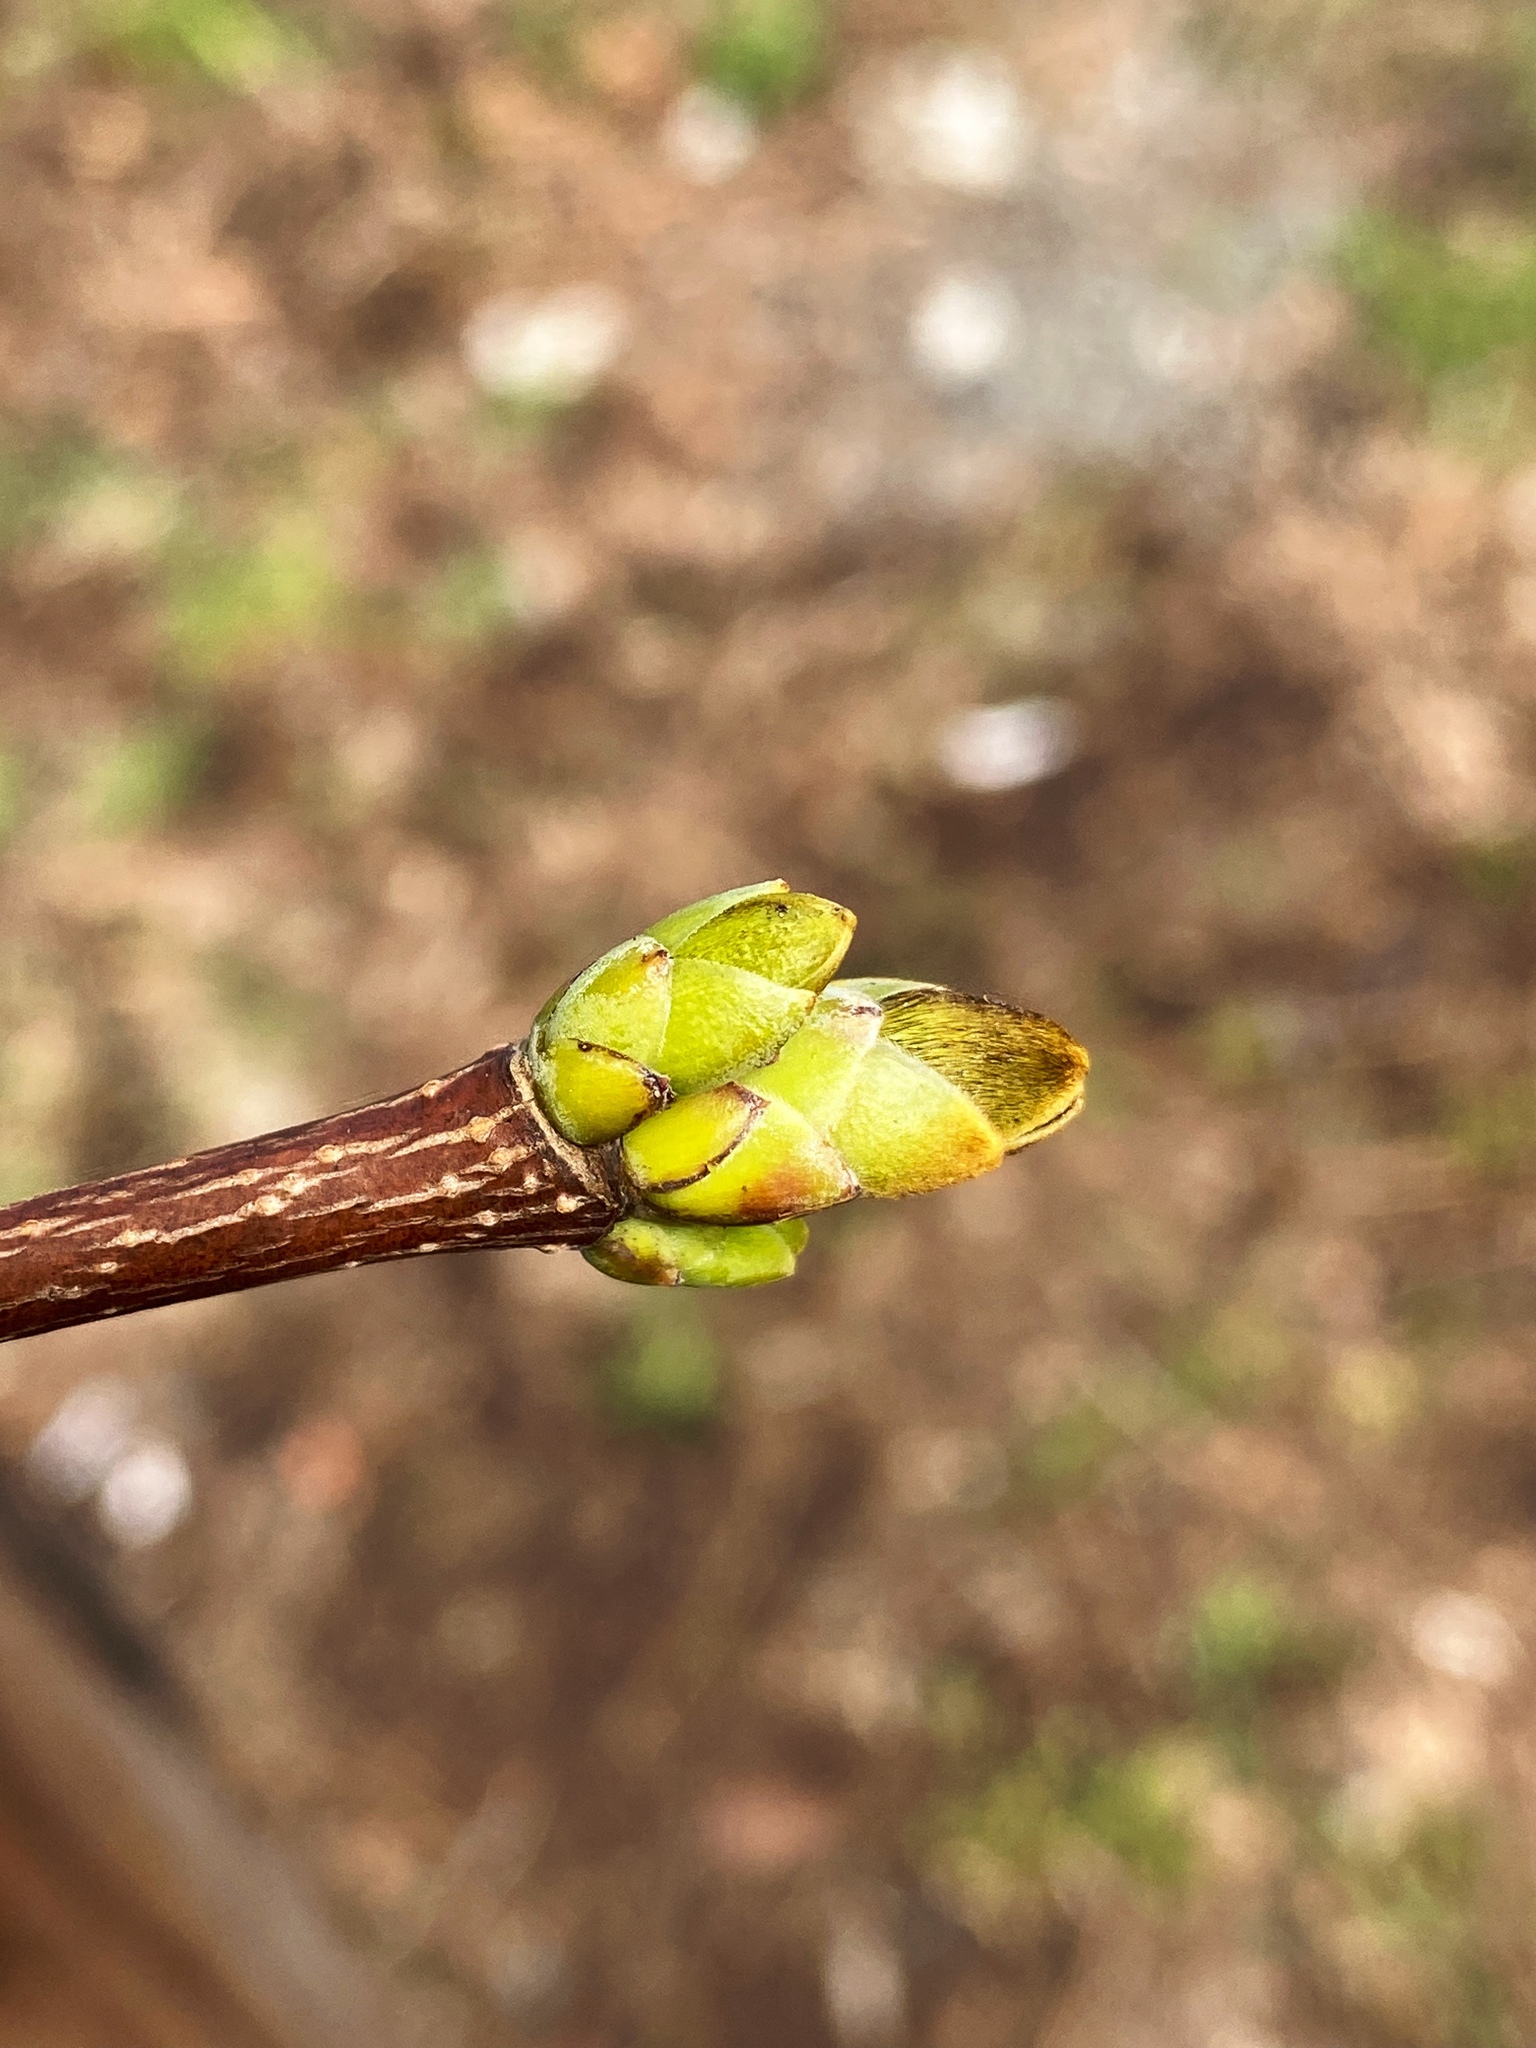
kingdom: Plantae
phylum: Tracheophyta
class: Magnoliopsida
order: Sapindales
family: Sapindaceae
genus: Acer
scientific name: Acer platanoides
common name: Norway maple
